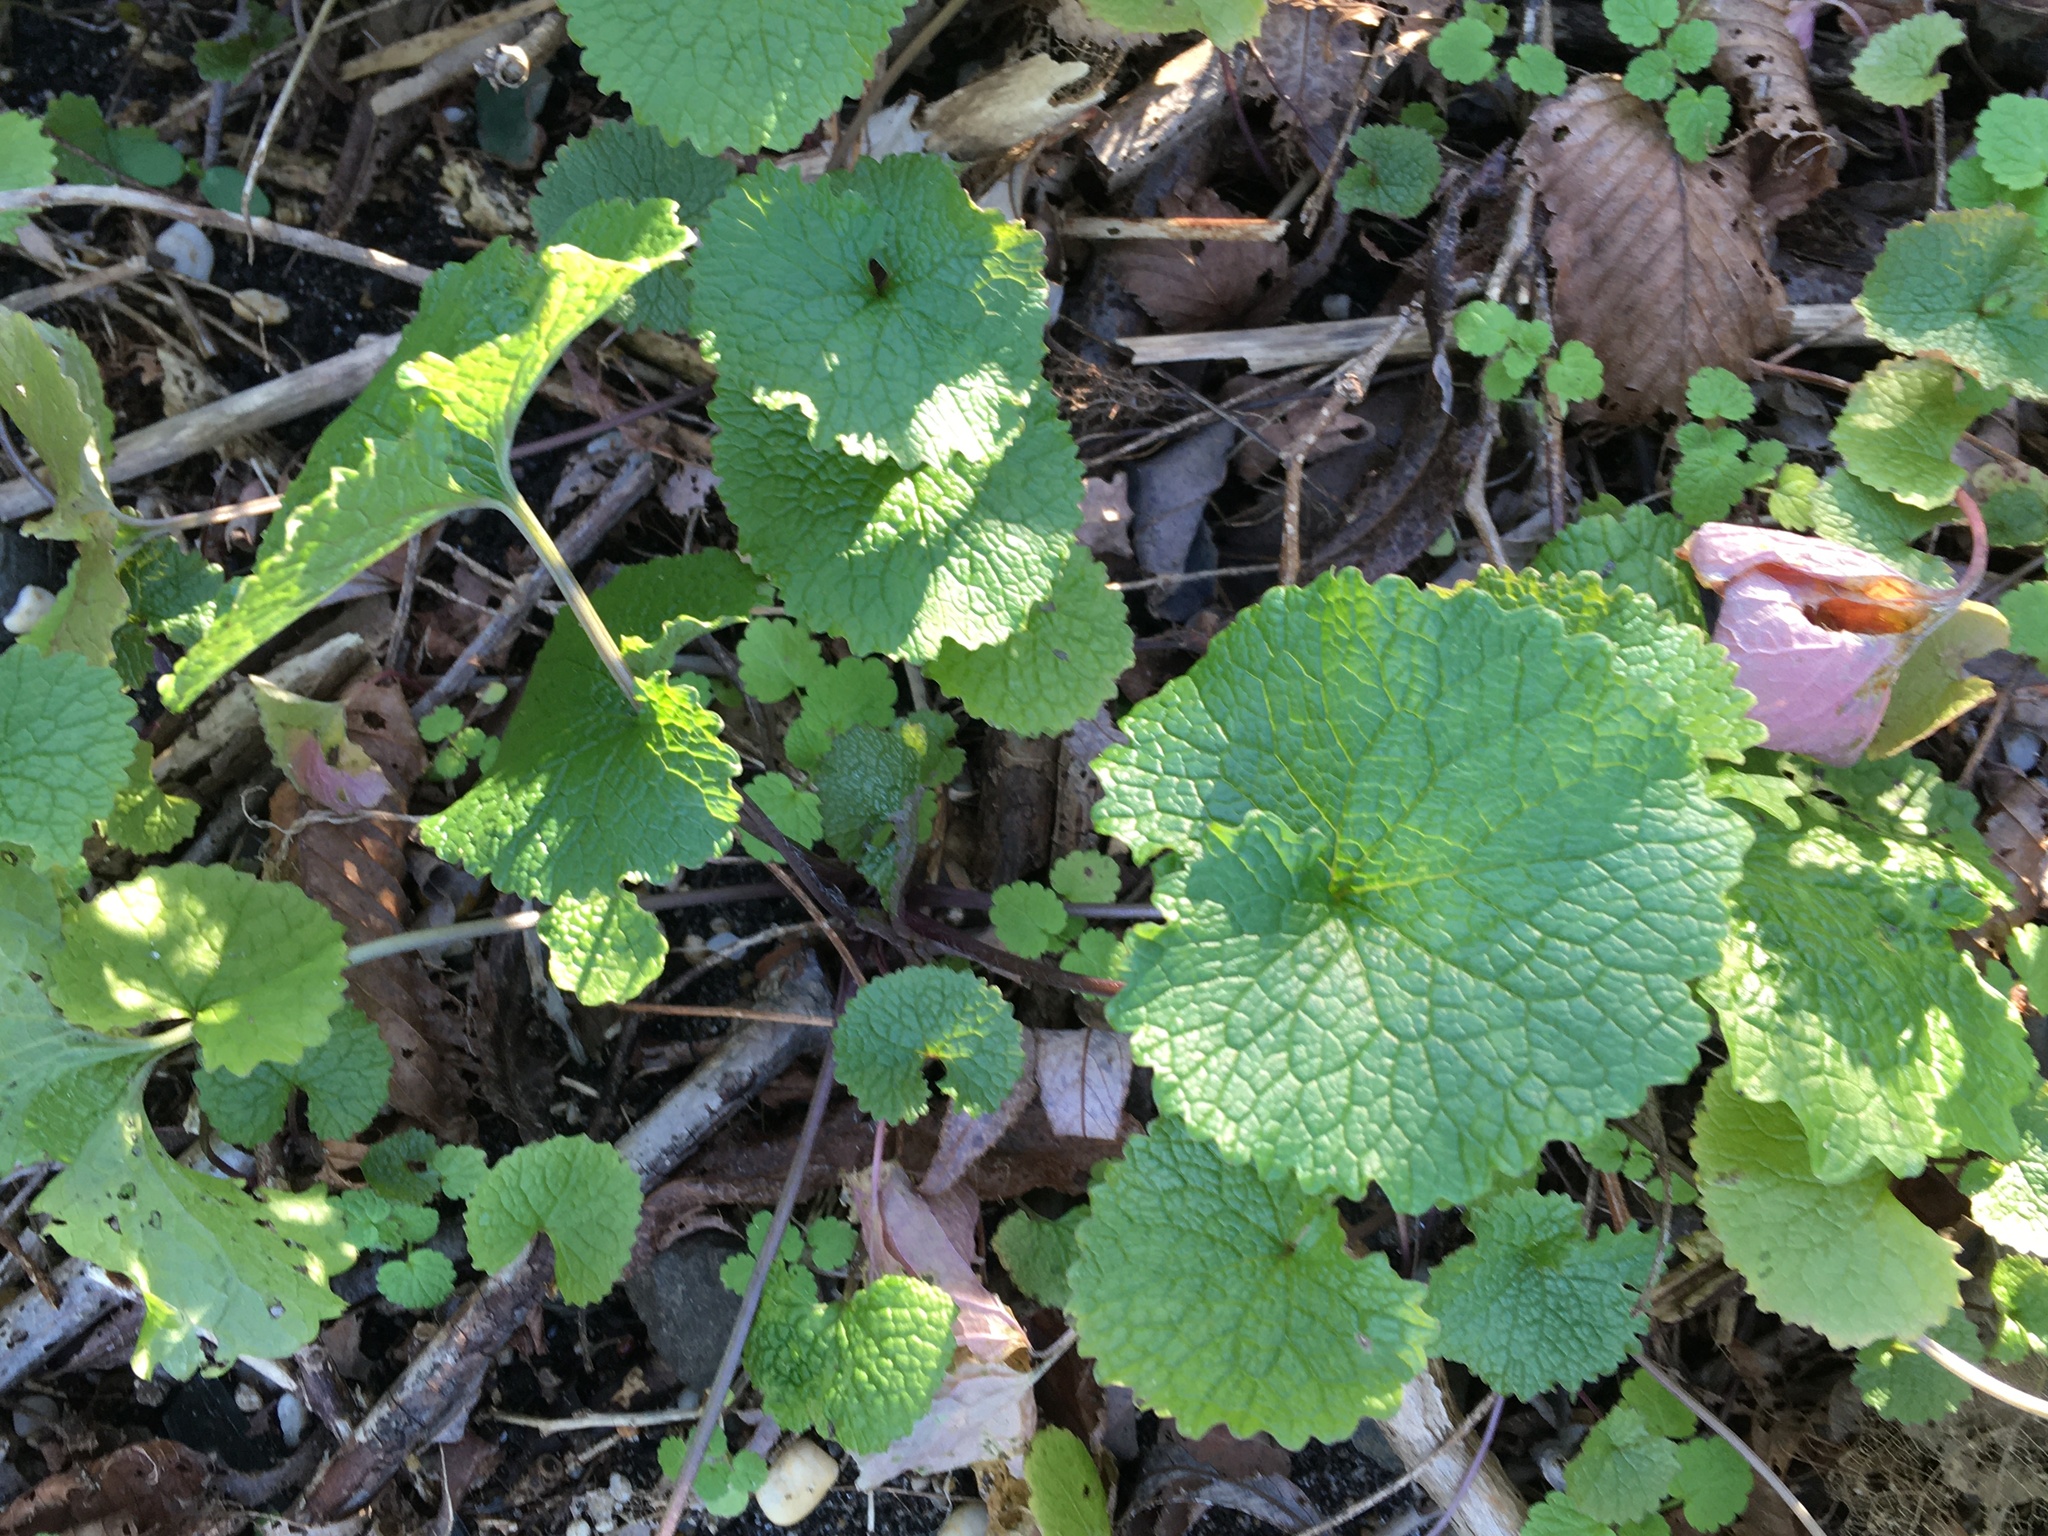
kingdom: Plantae
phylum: Tracheophyta
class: Magnoliopsida
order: Brassicales
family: Brassicaceae
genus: Alliaria
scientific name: Alliaria petiolata
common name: Garlic mustard
